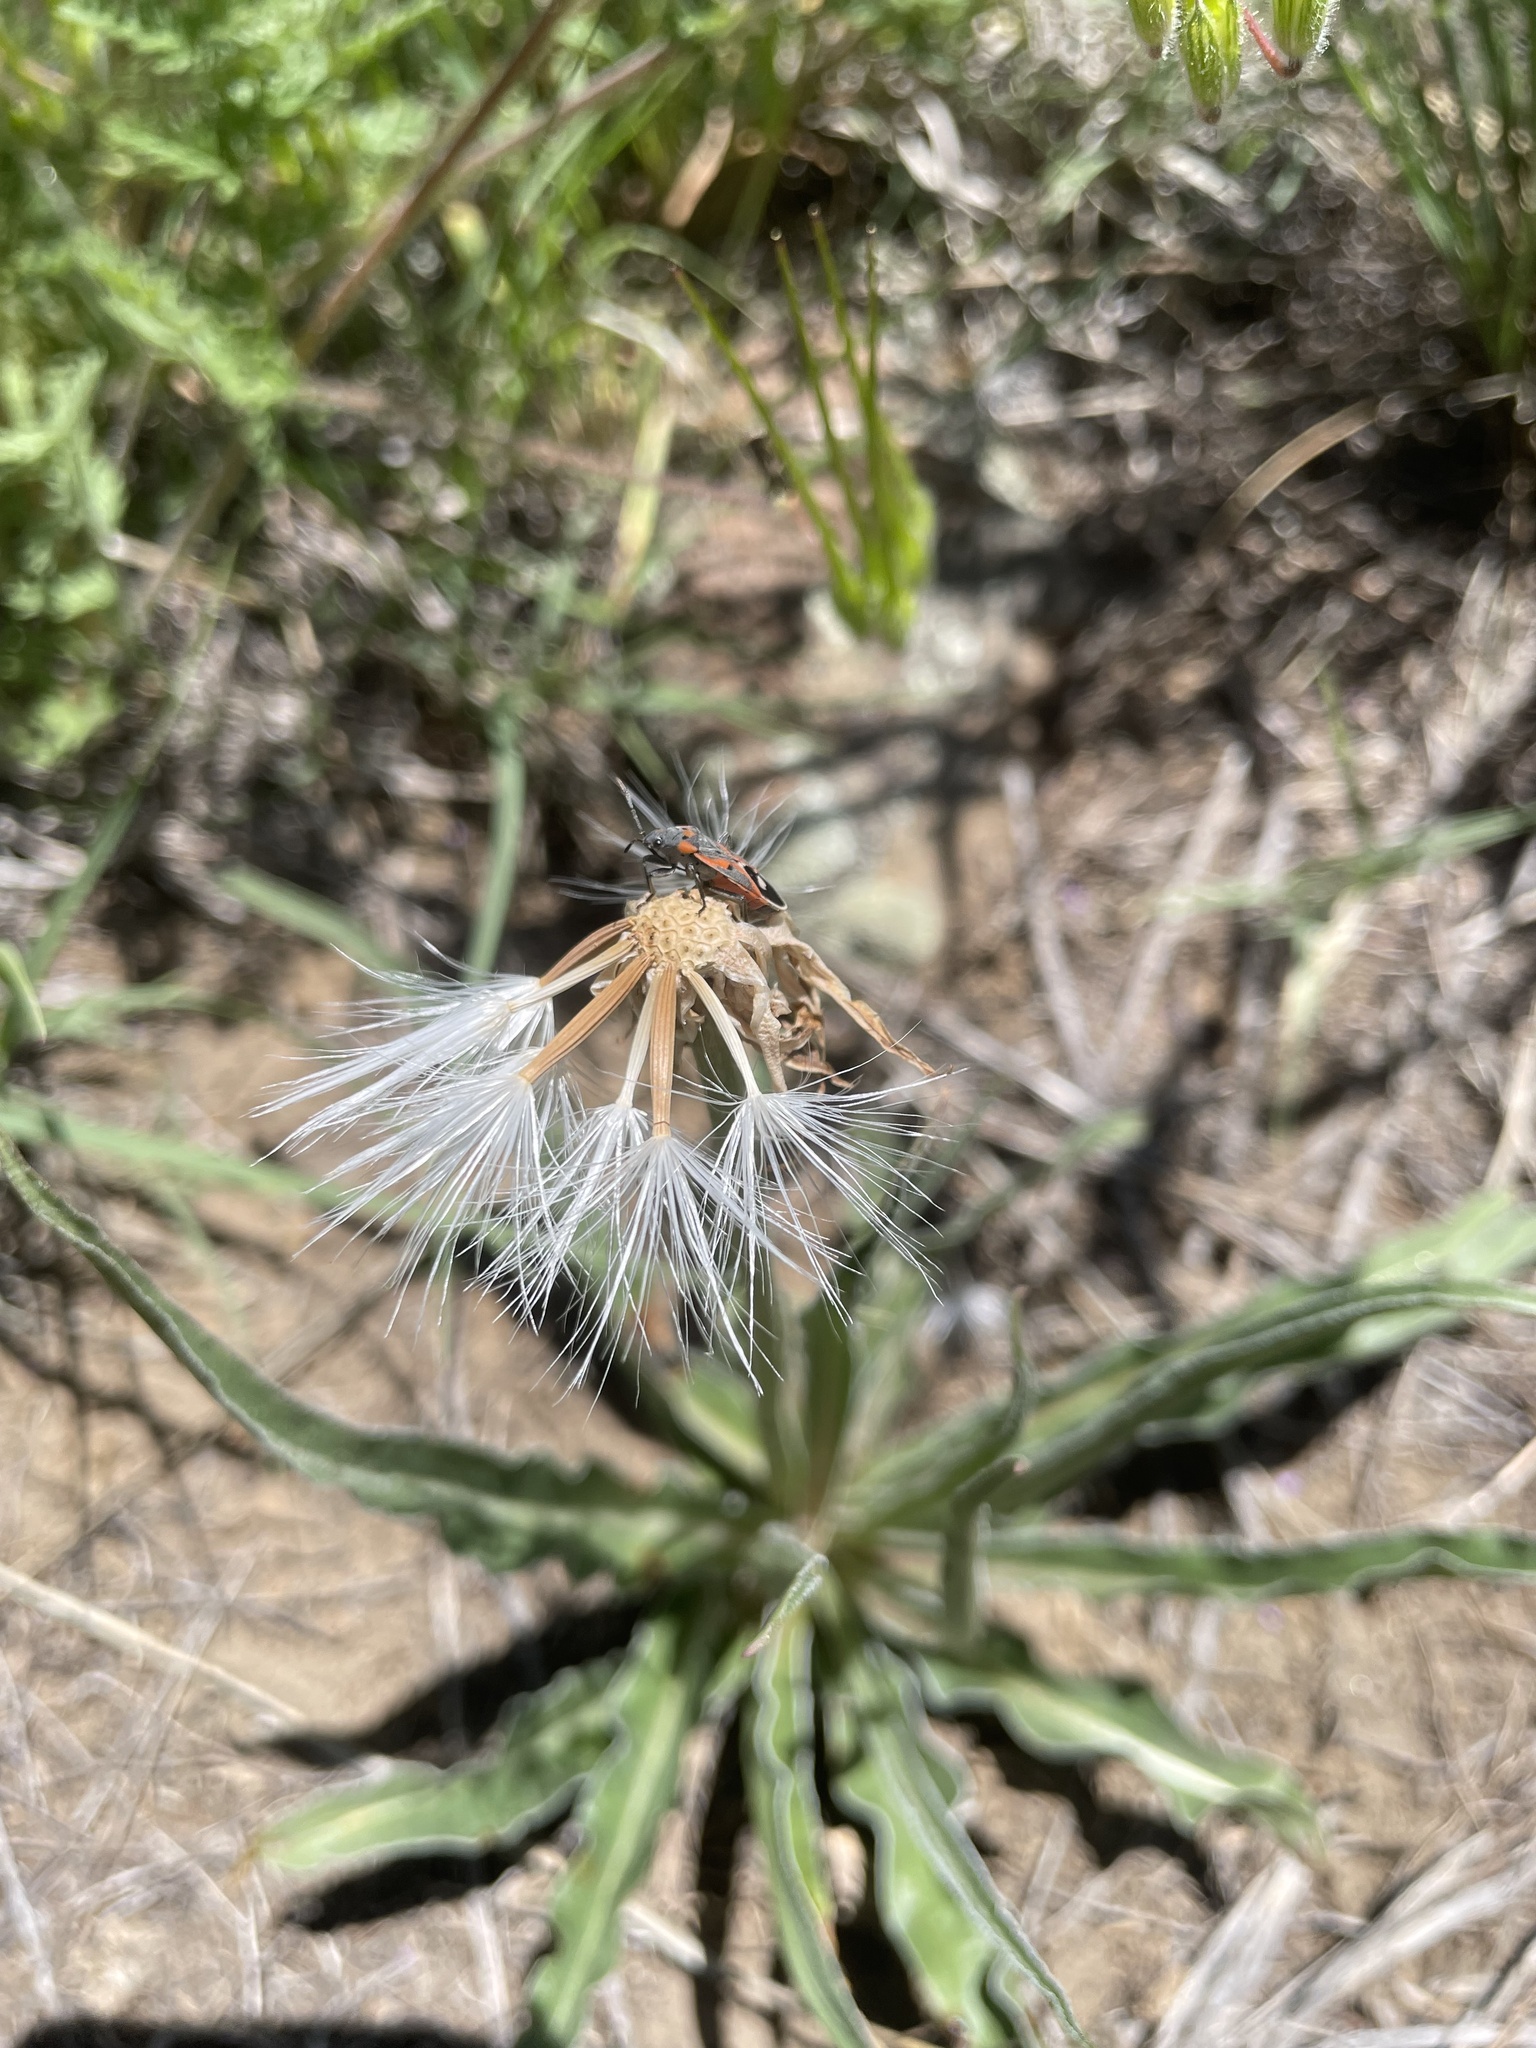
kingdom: Plantae
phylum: Tracheophyta
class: Magnoliopsida
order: Asterales
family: Asteraceae
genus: Microseris
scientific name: Microseris cuspidata
